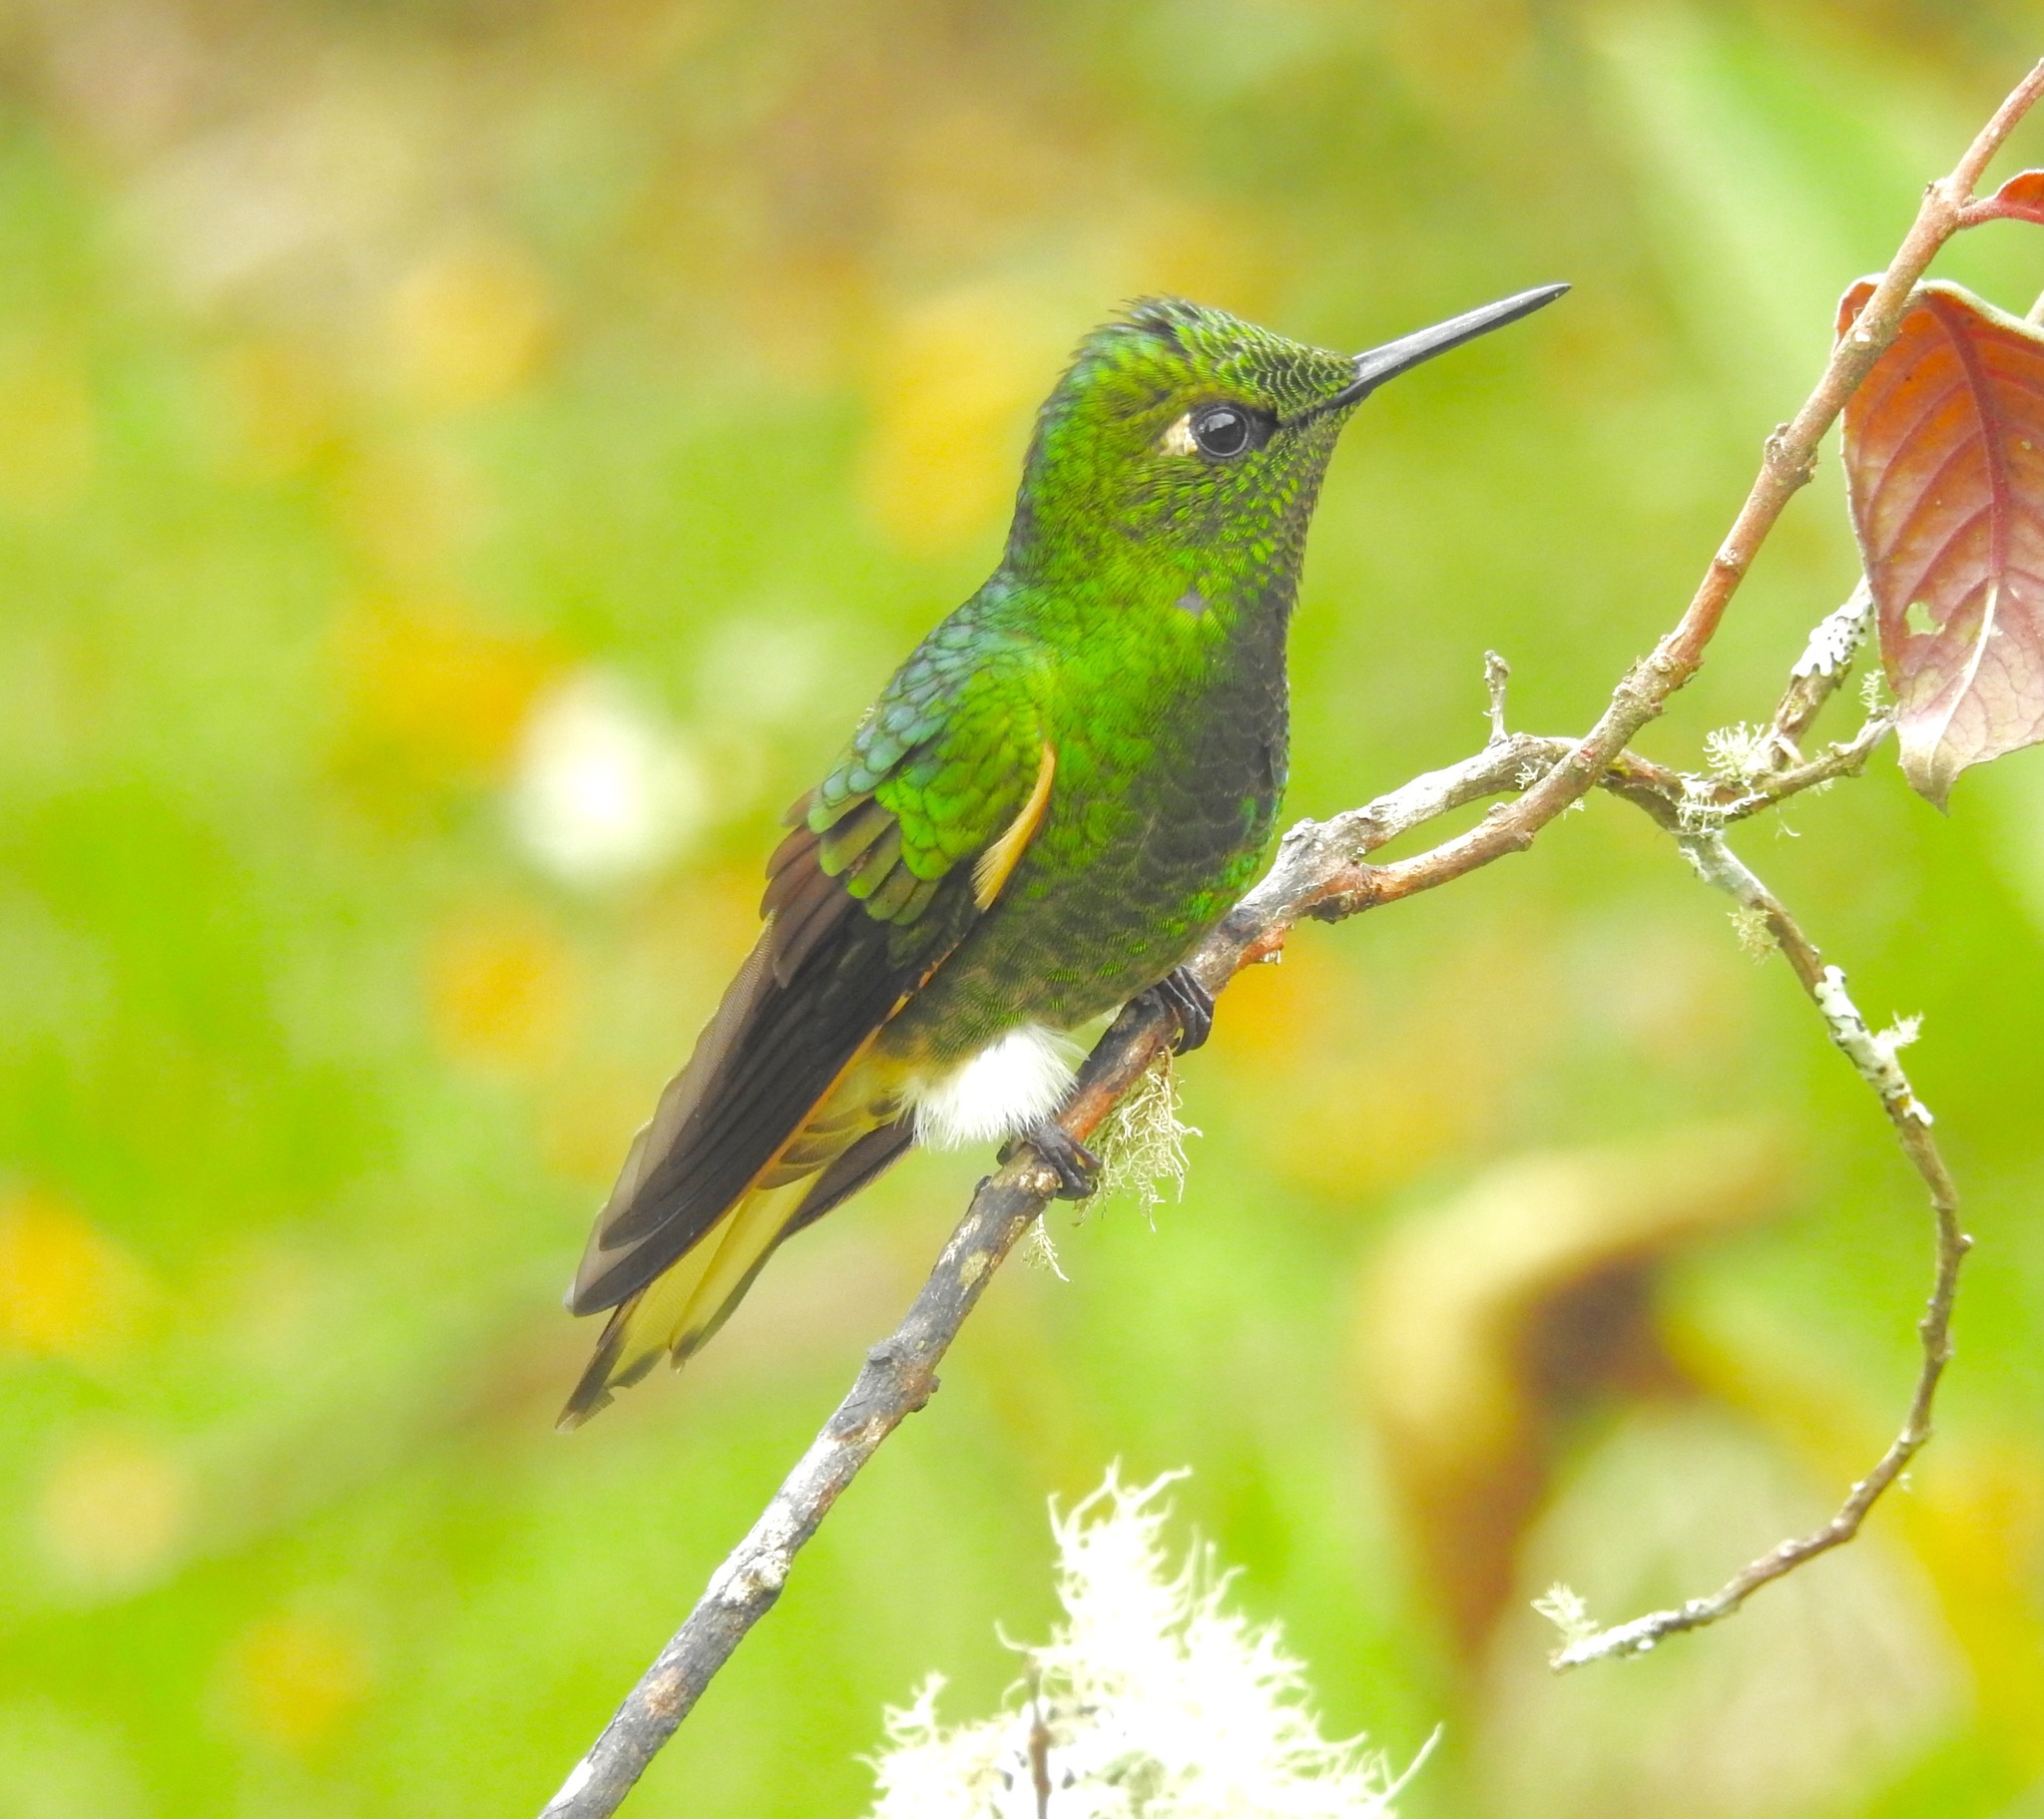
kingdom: Animalia
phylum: Chordata
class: Aves
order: Apodiformes
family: Trochilidae
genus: Boissonneaua
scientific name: Boissonneaua flavescens
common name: Buff-tailed coronet
